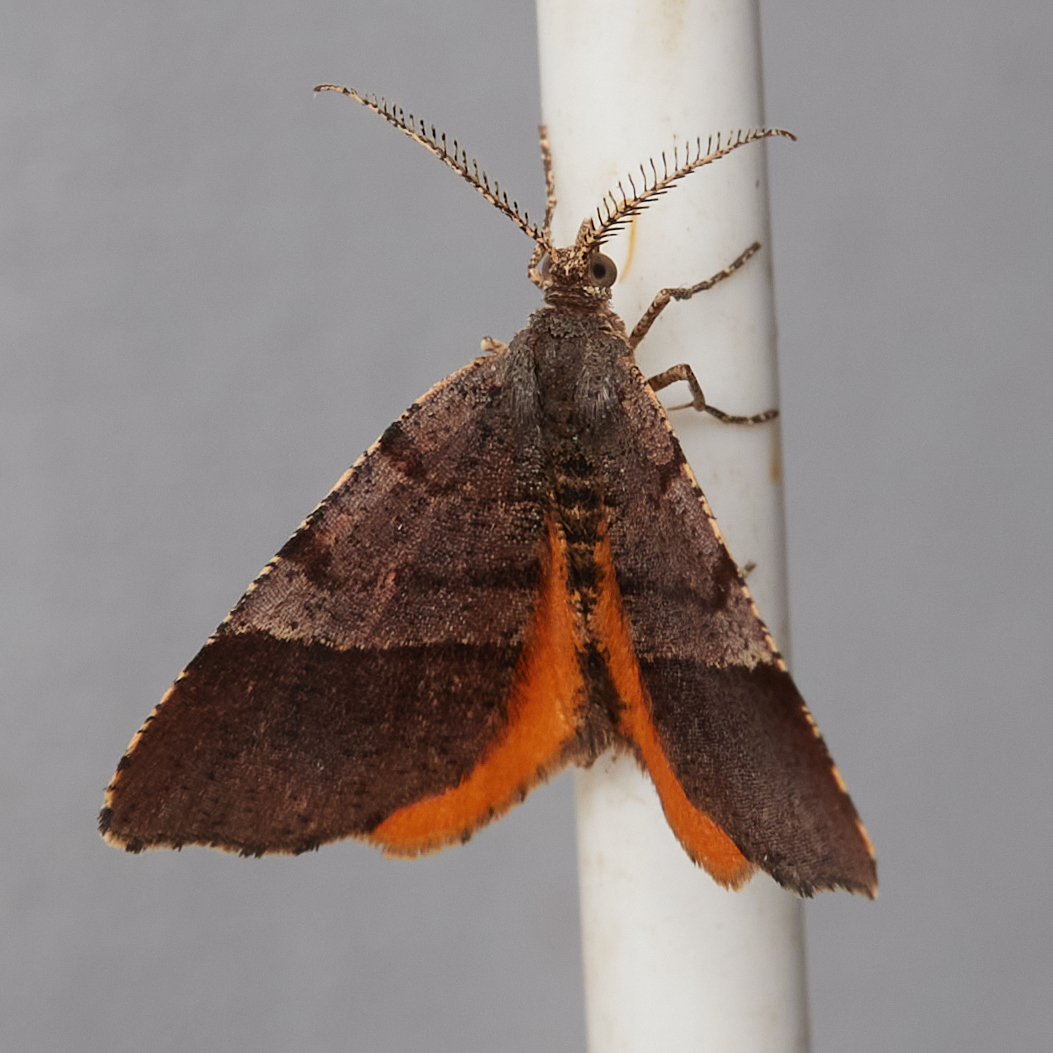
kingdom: Animalia
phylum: Arthropoda
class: Insecta
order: Lepidoptera
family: Geometridae
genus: Mellilla
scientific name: Mellilla xanthometata
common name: Orange wing moth
